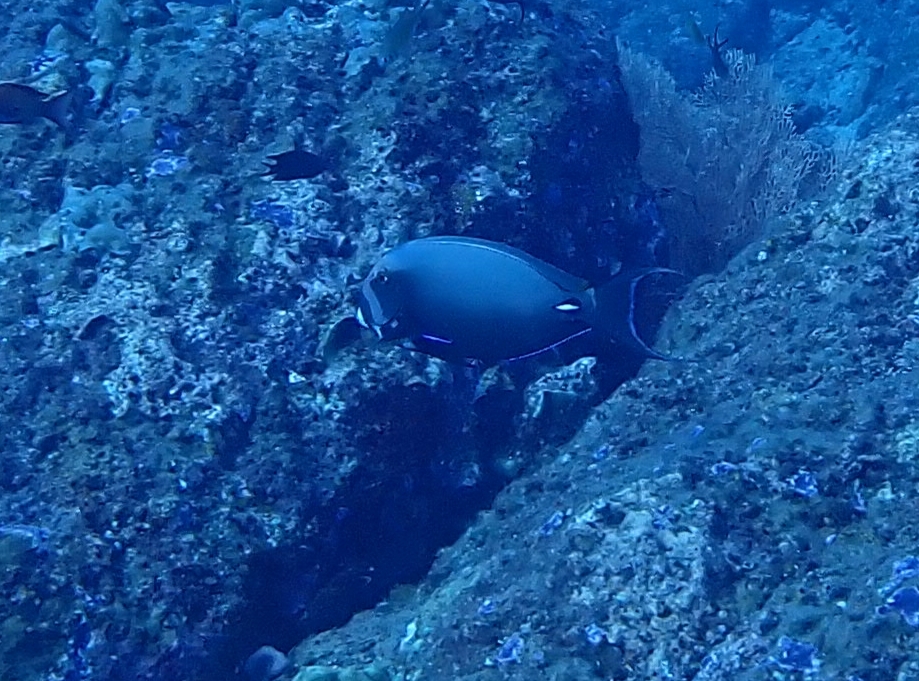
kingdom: Animalia
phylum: Chordata
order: Perciformes
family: Acanthuridae
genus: Acanthurus
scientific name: Acanthurus leucocheilus
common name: Palelipped surgeonfish
